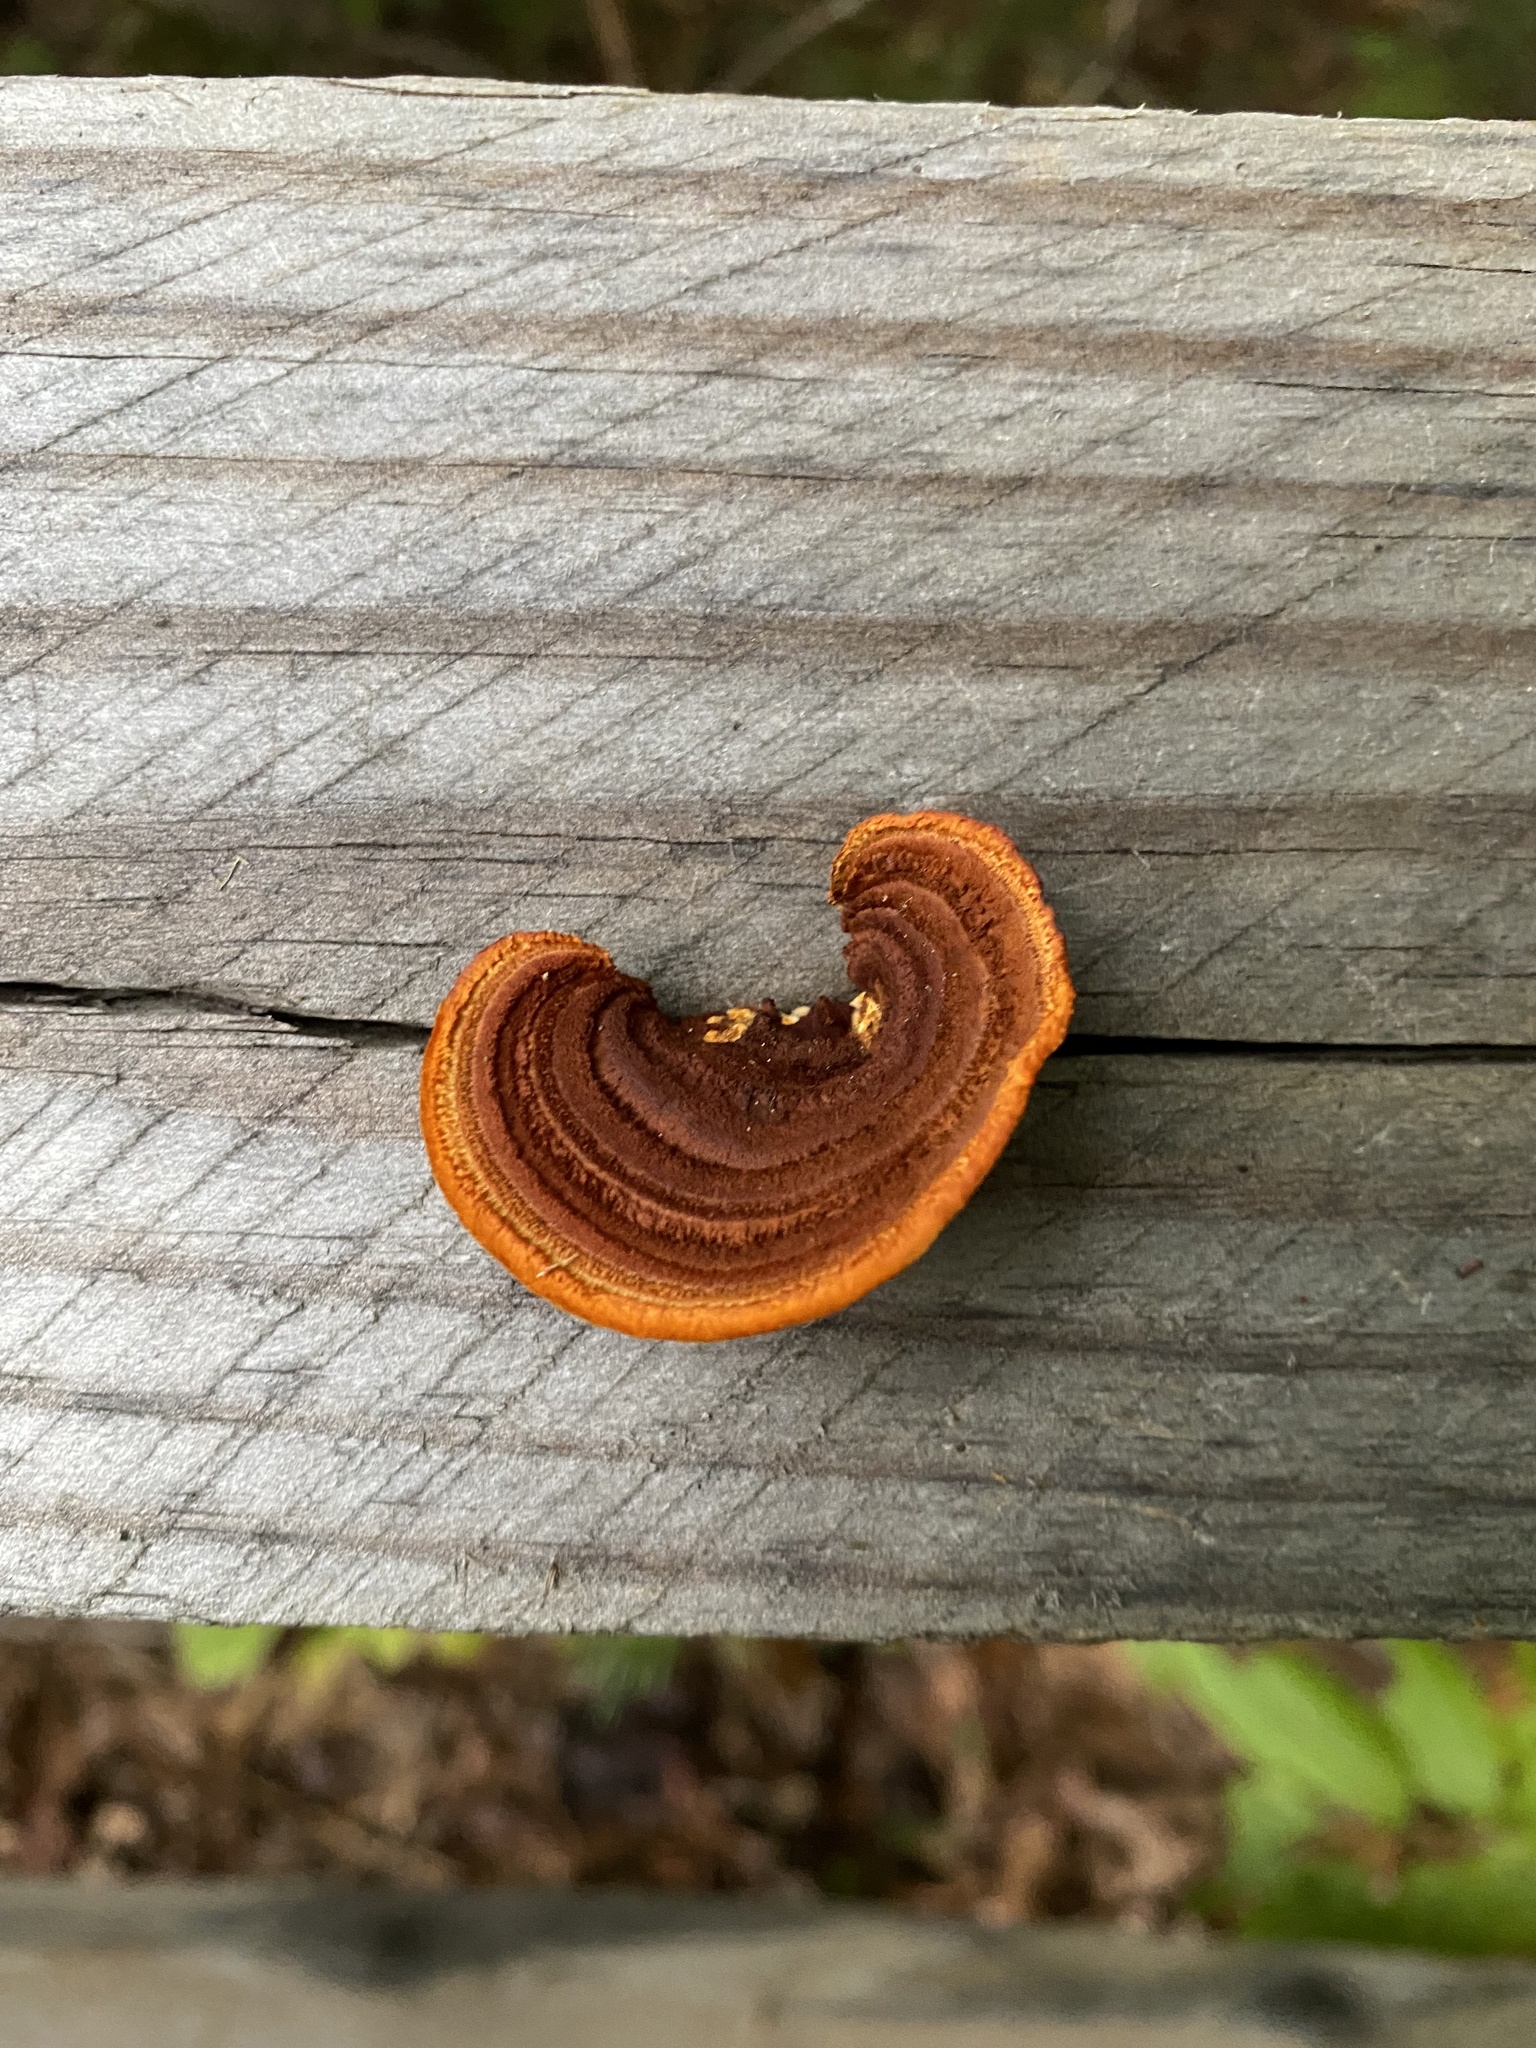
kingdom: Fungi
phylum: Basidiomycota
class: Agaricomycetes
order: Gloeophyllales
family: Gloeophyllaceae
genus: Gloeophyllum
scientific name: Gloeophyllum sepiarium
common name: Conifer mazegill
